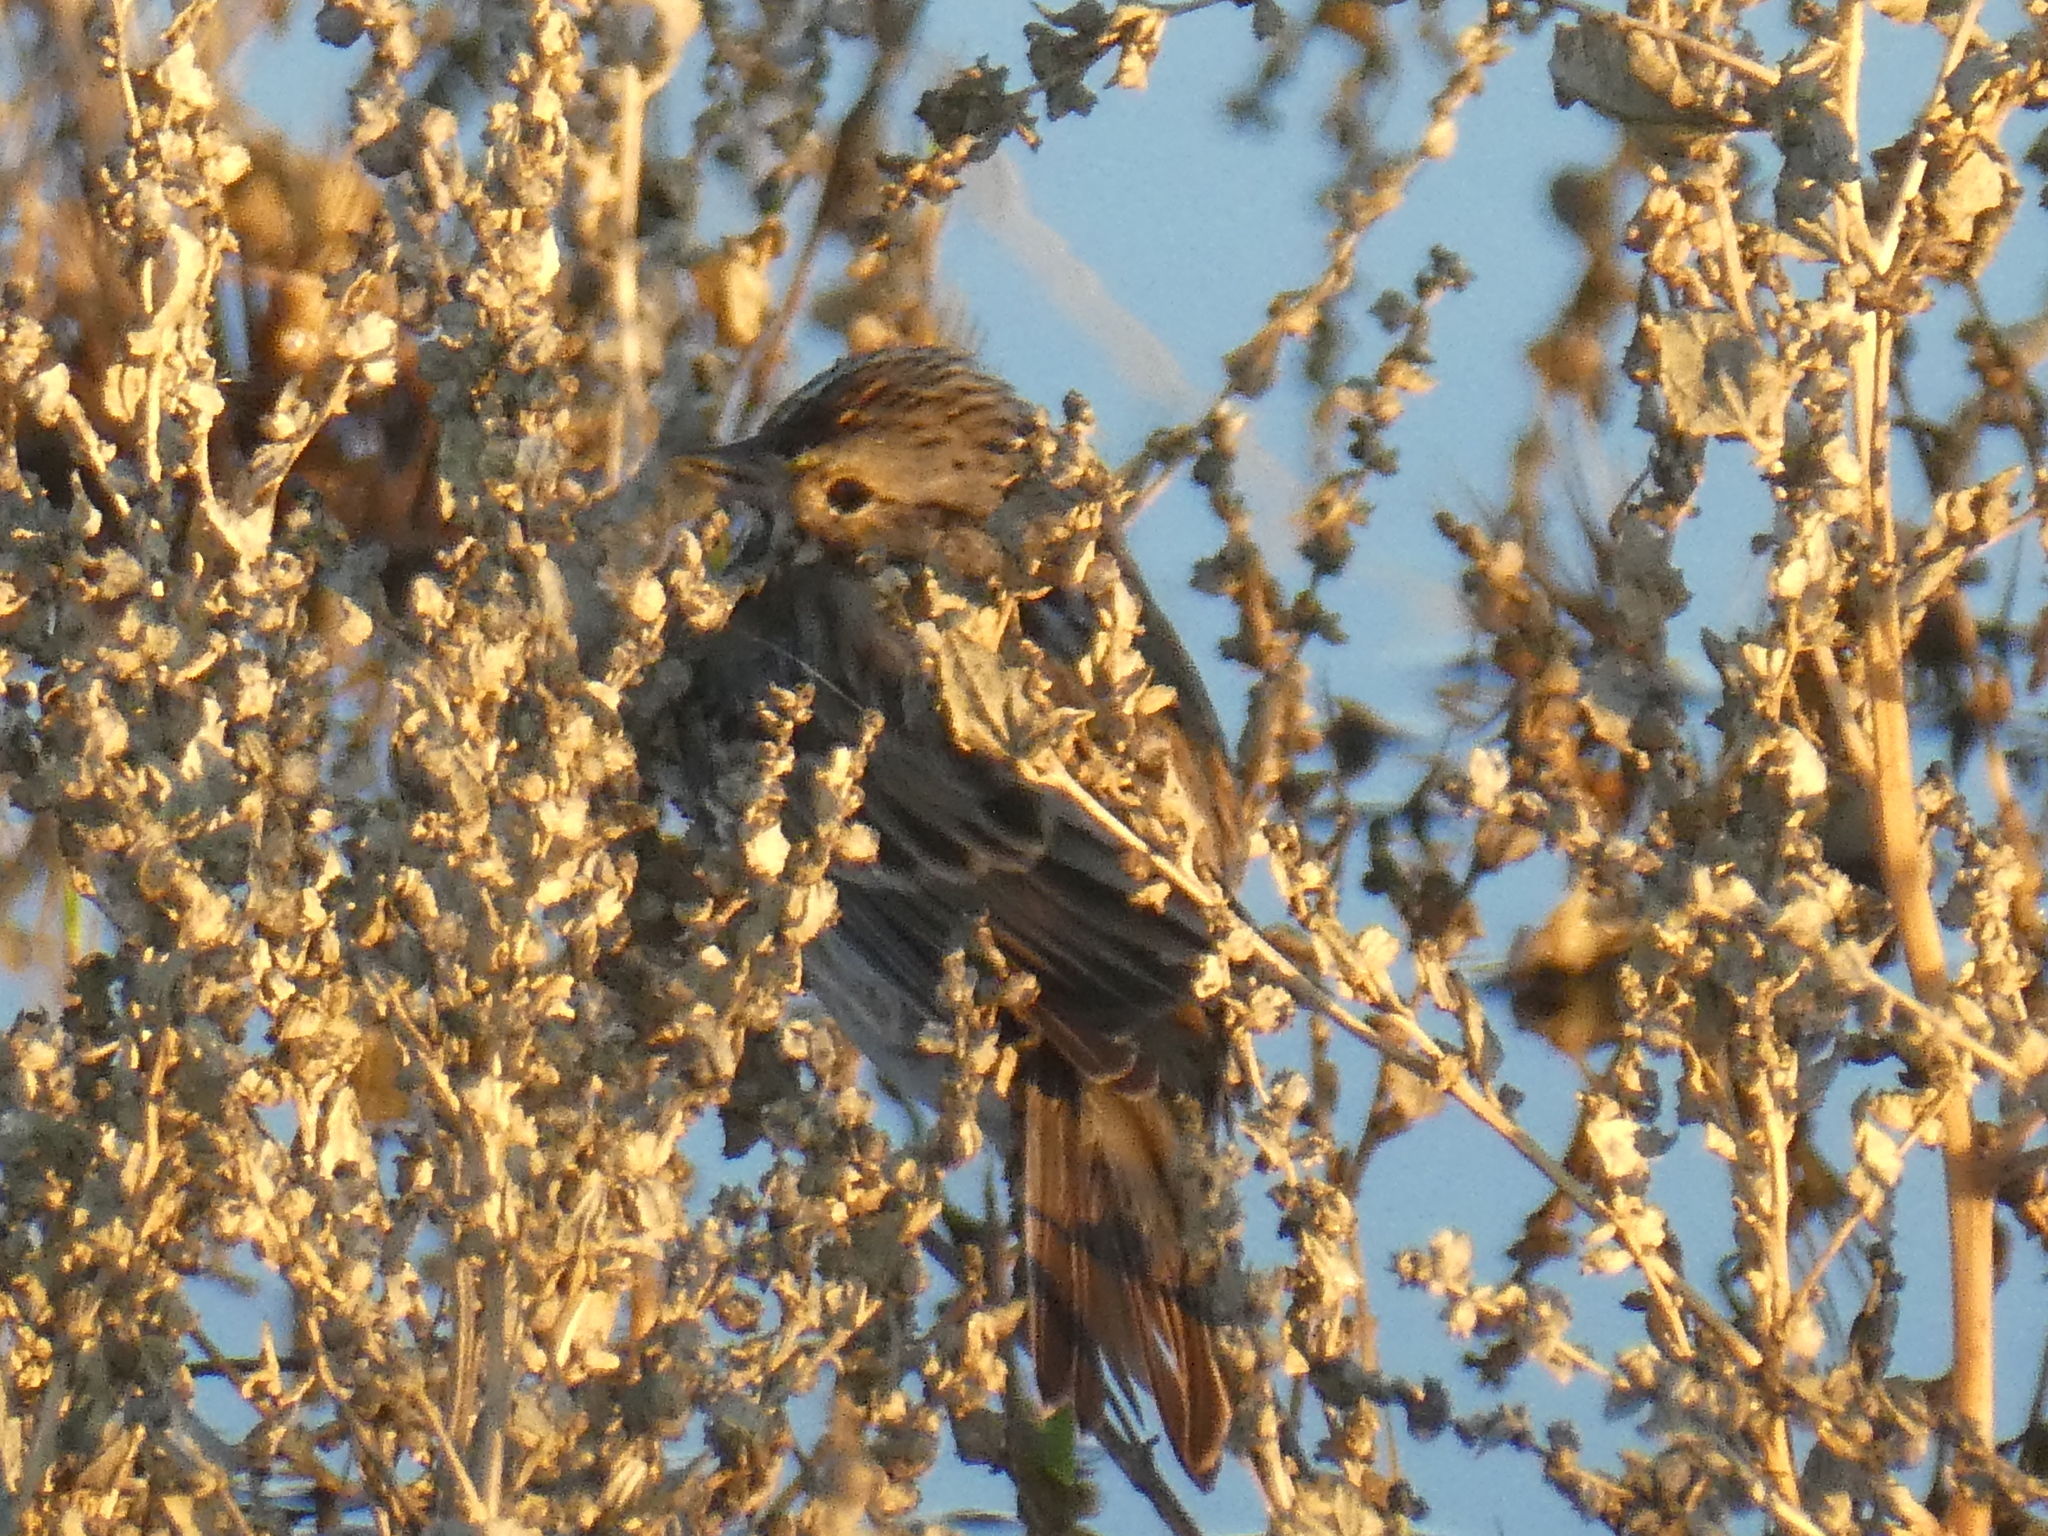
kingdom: Animalia
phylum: Chordata
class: Aves
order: Passeriformes
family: Passerellidae
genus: Passerculus
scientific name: Passerculus sandwichensis
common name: Savannah sparrow
